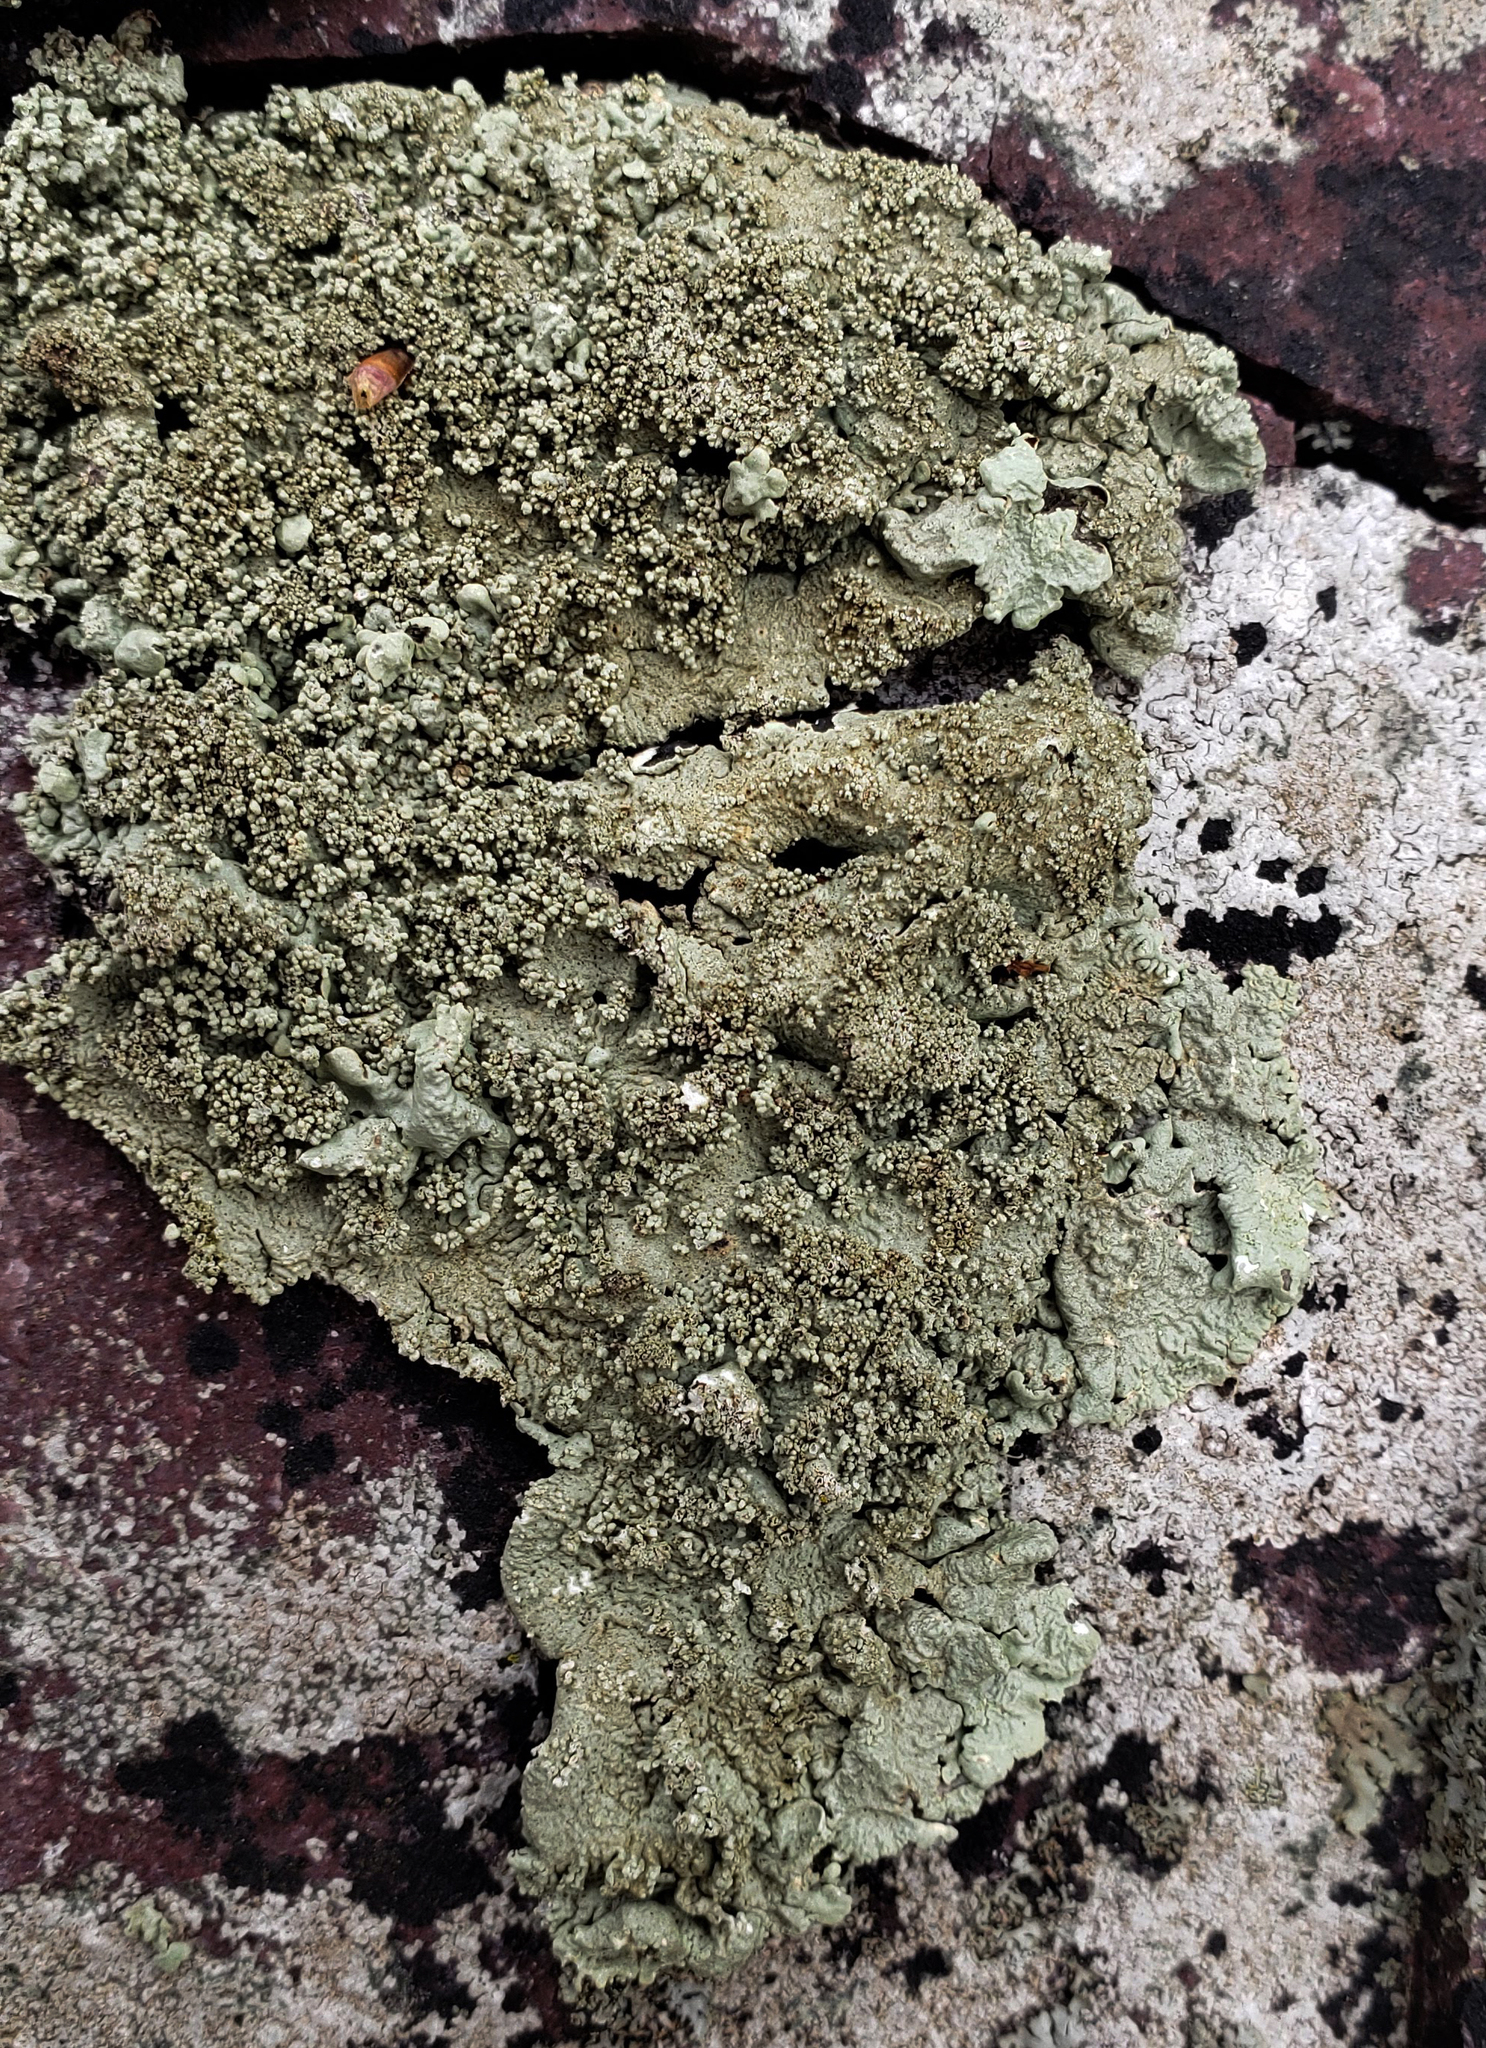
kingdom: Fungi
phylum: Ascomycota
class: Lecanoromycetes
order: Lecanorales
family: Parmeliaceae
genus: Flavoparmelia
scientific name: Flavoparmelia baltimorensis
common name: Rock greenshield
